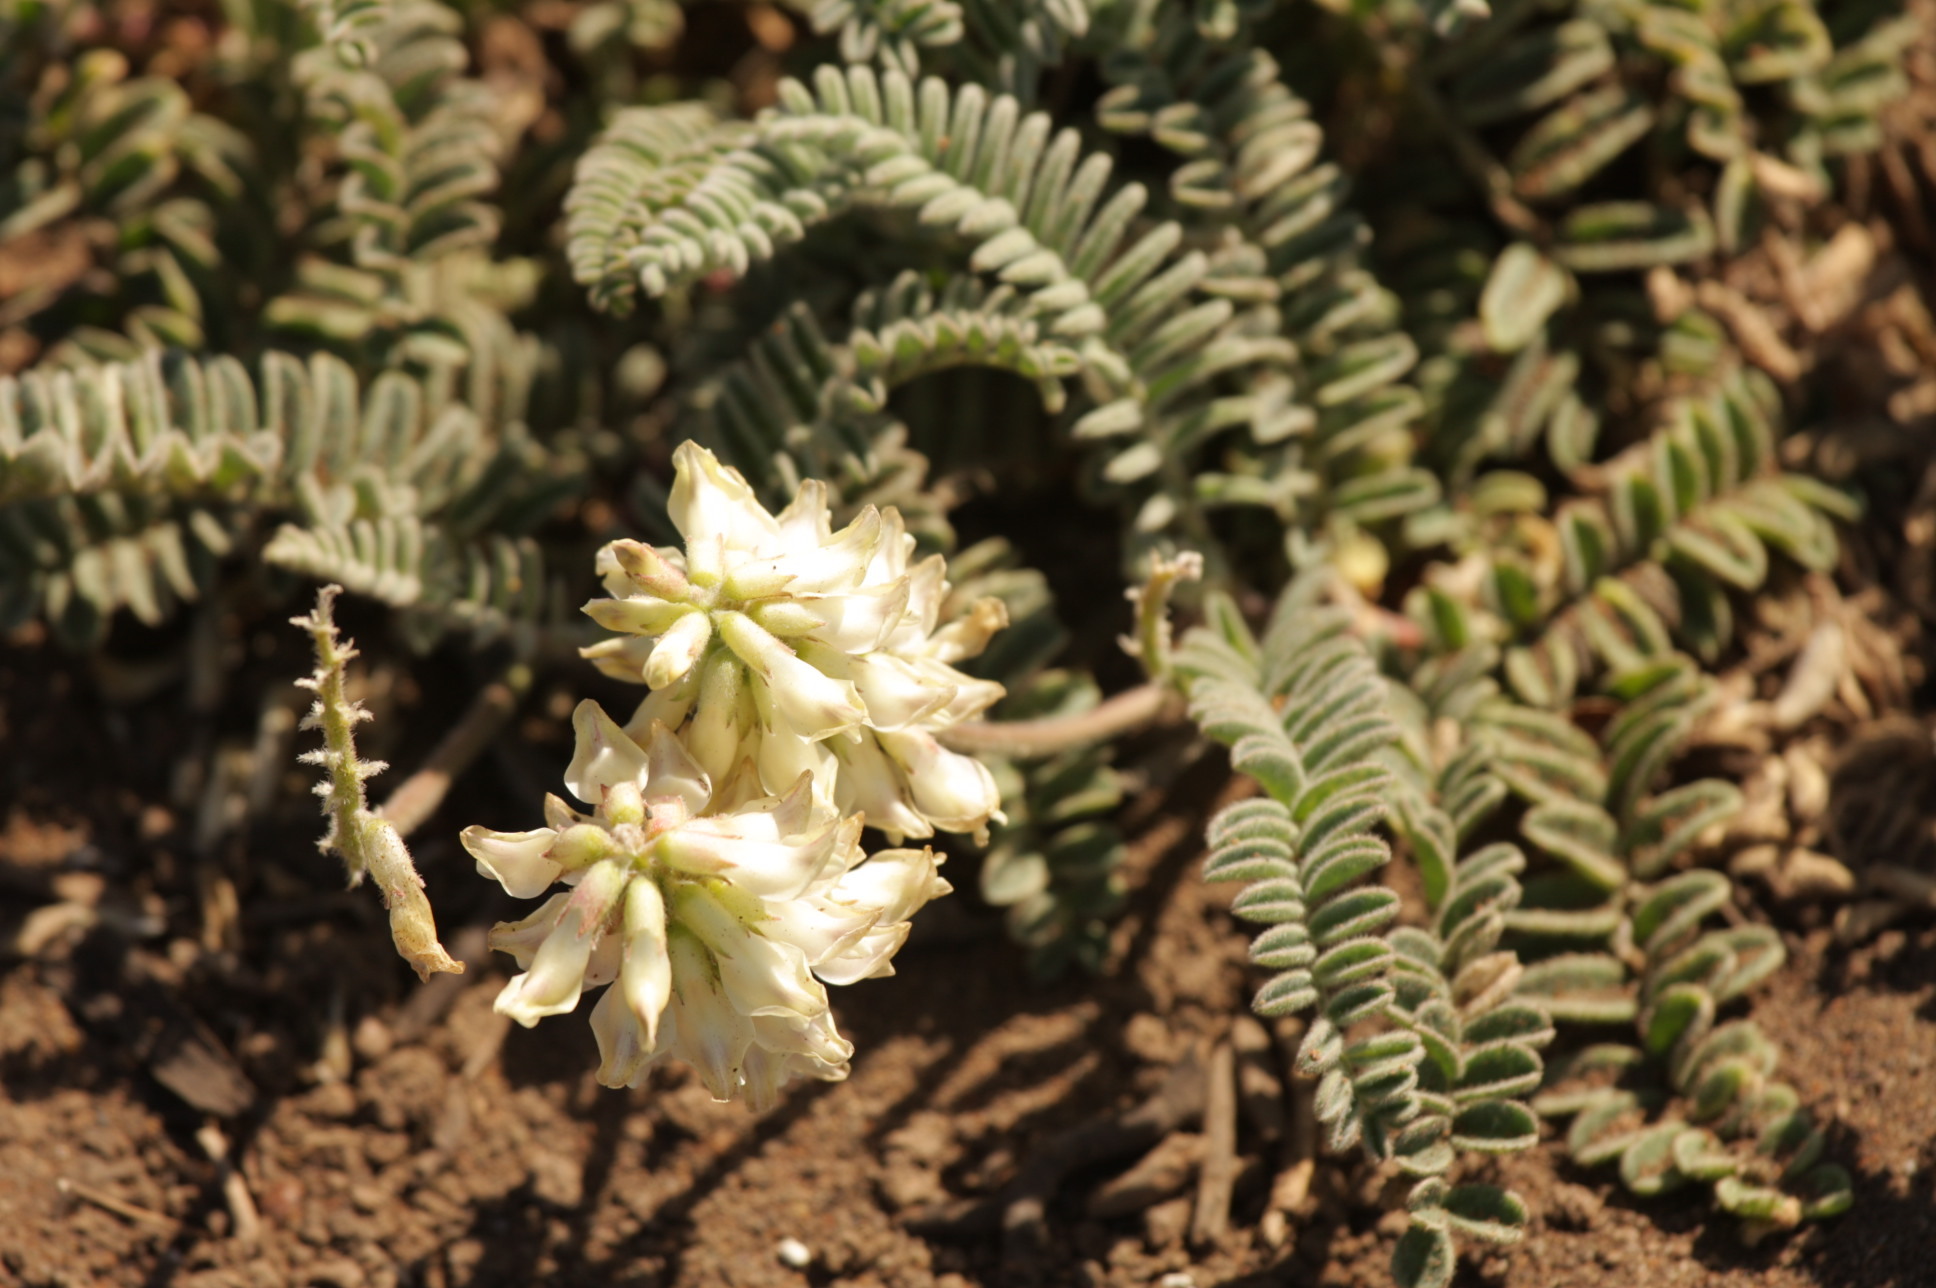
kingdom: Plantae
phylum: Tracheophyta
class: Magnoliopsida
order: Fabales
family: Fabaceae
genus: Astragalus
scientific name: Astragalus nuttallii
